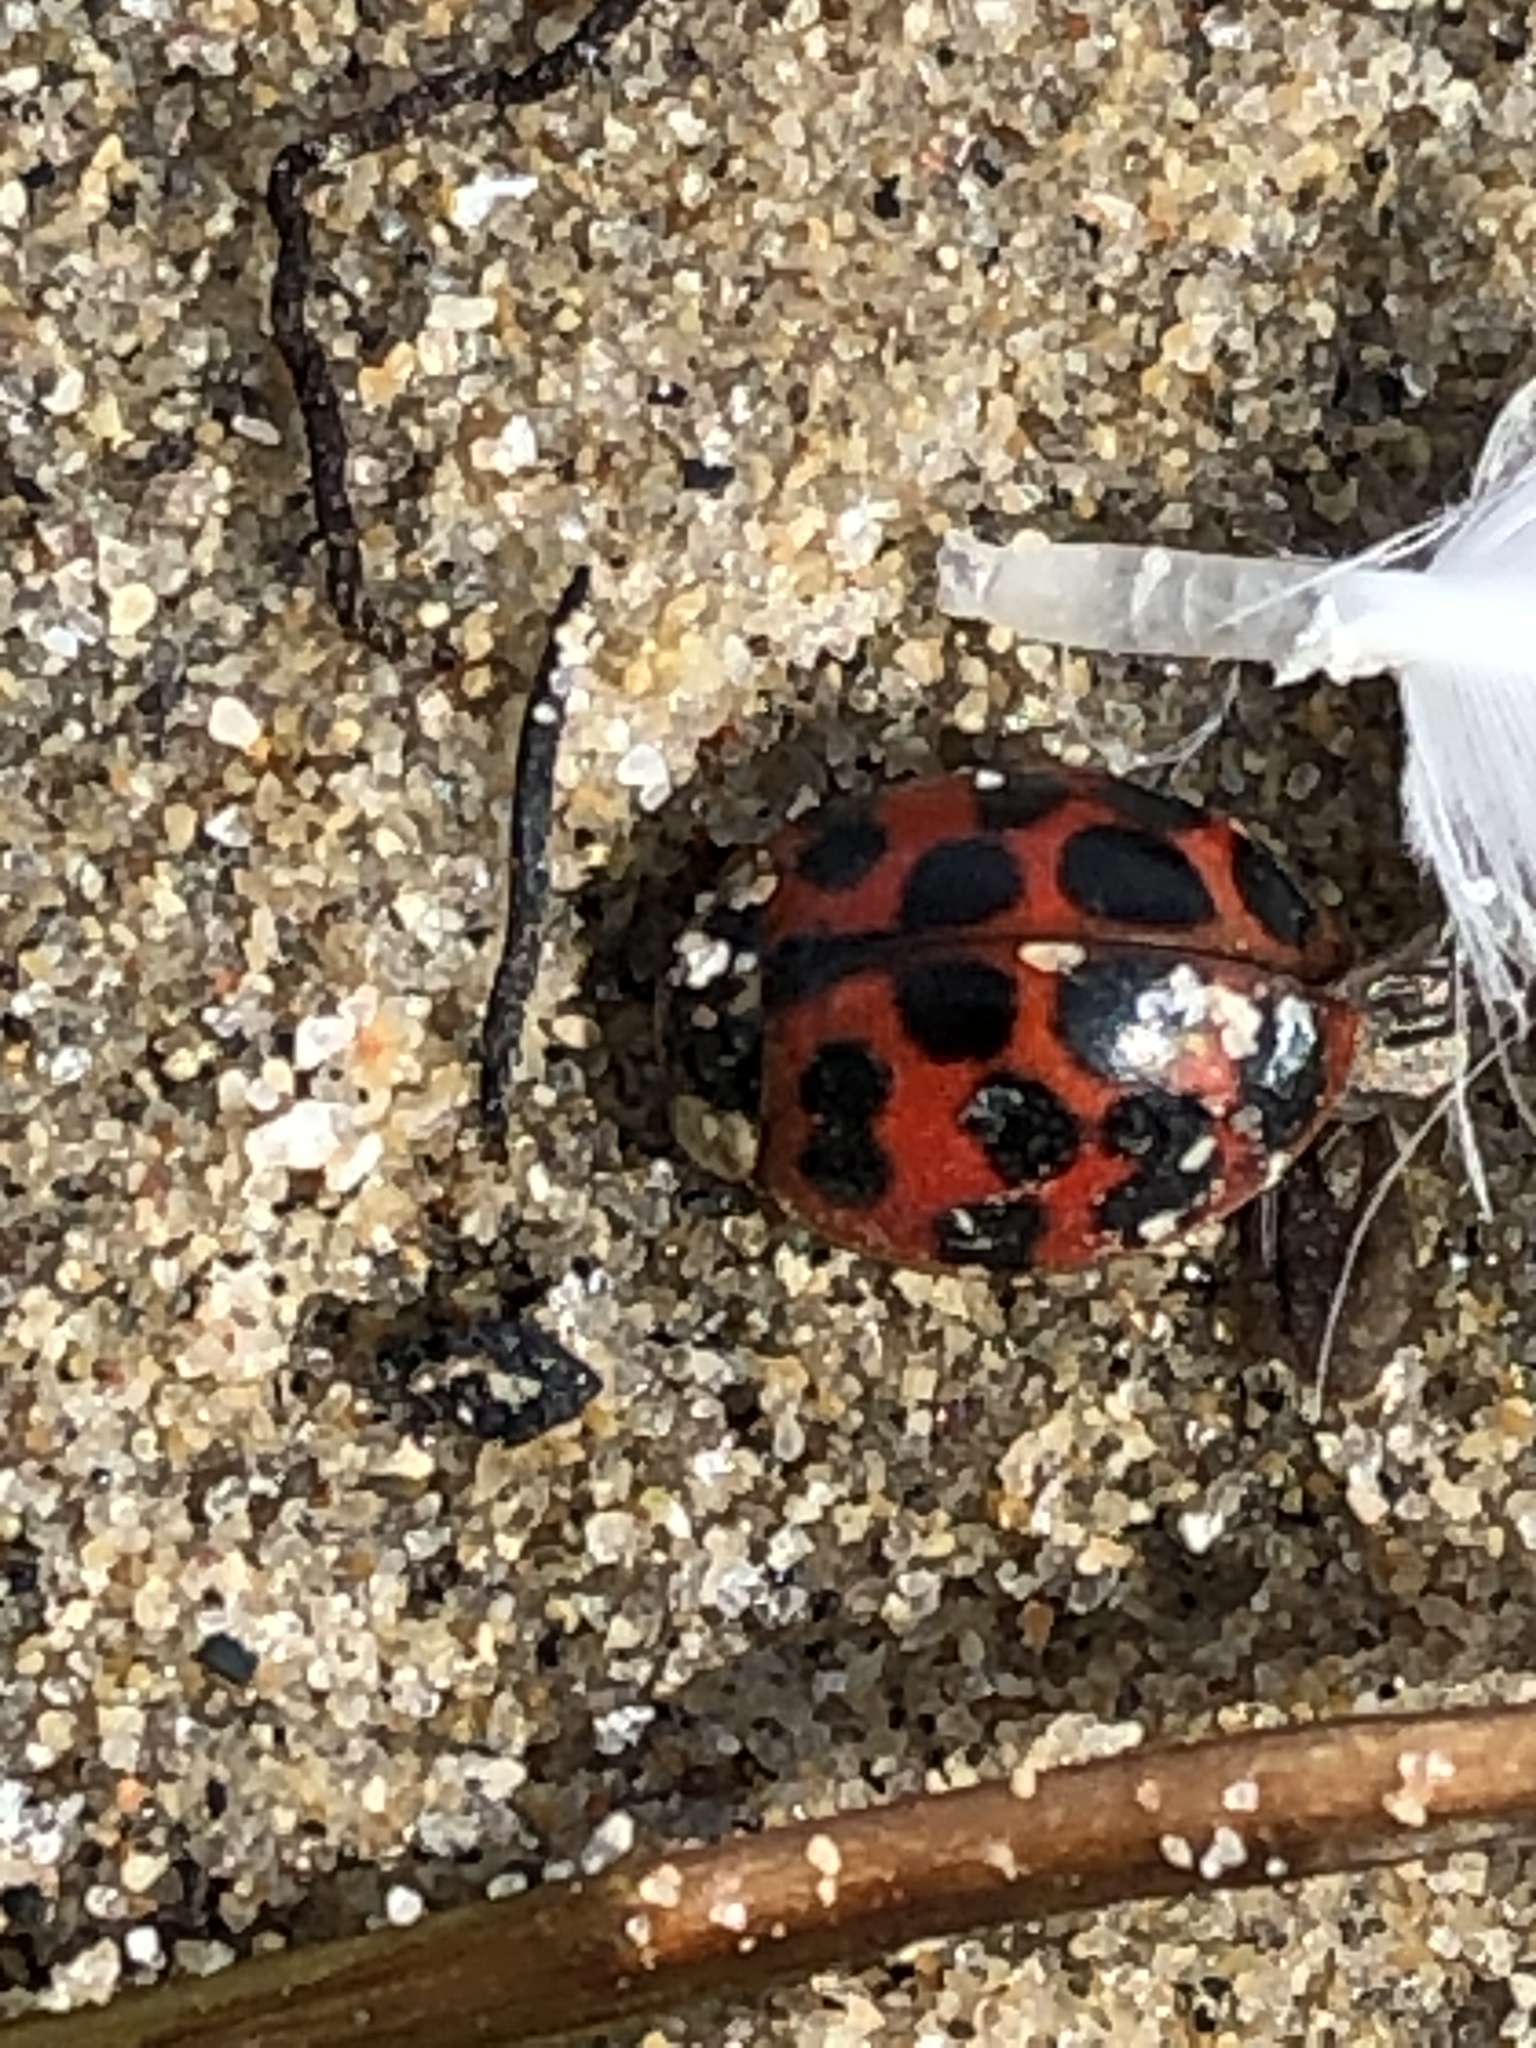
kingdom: Animalia
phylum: Arthropoda
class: Insecta
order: Coleoptera
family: Coccinellidae
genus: Harmonia
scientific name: Harmonia axyridis
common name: Harlequin ladybird
